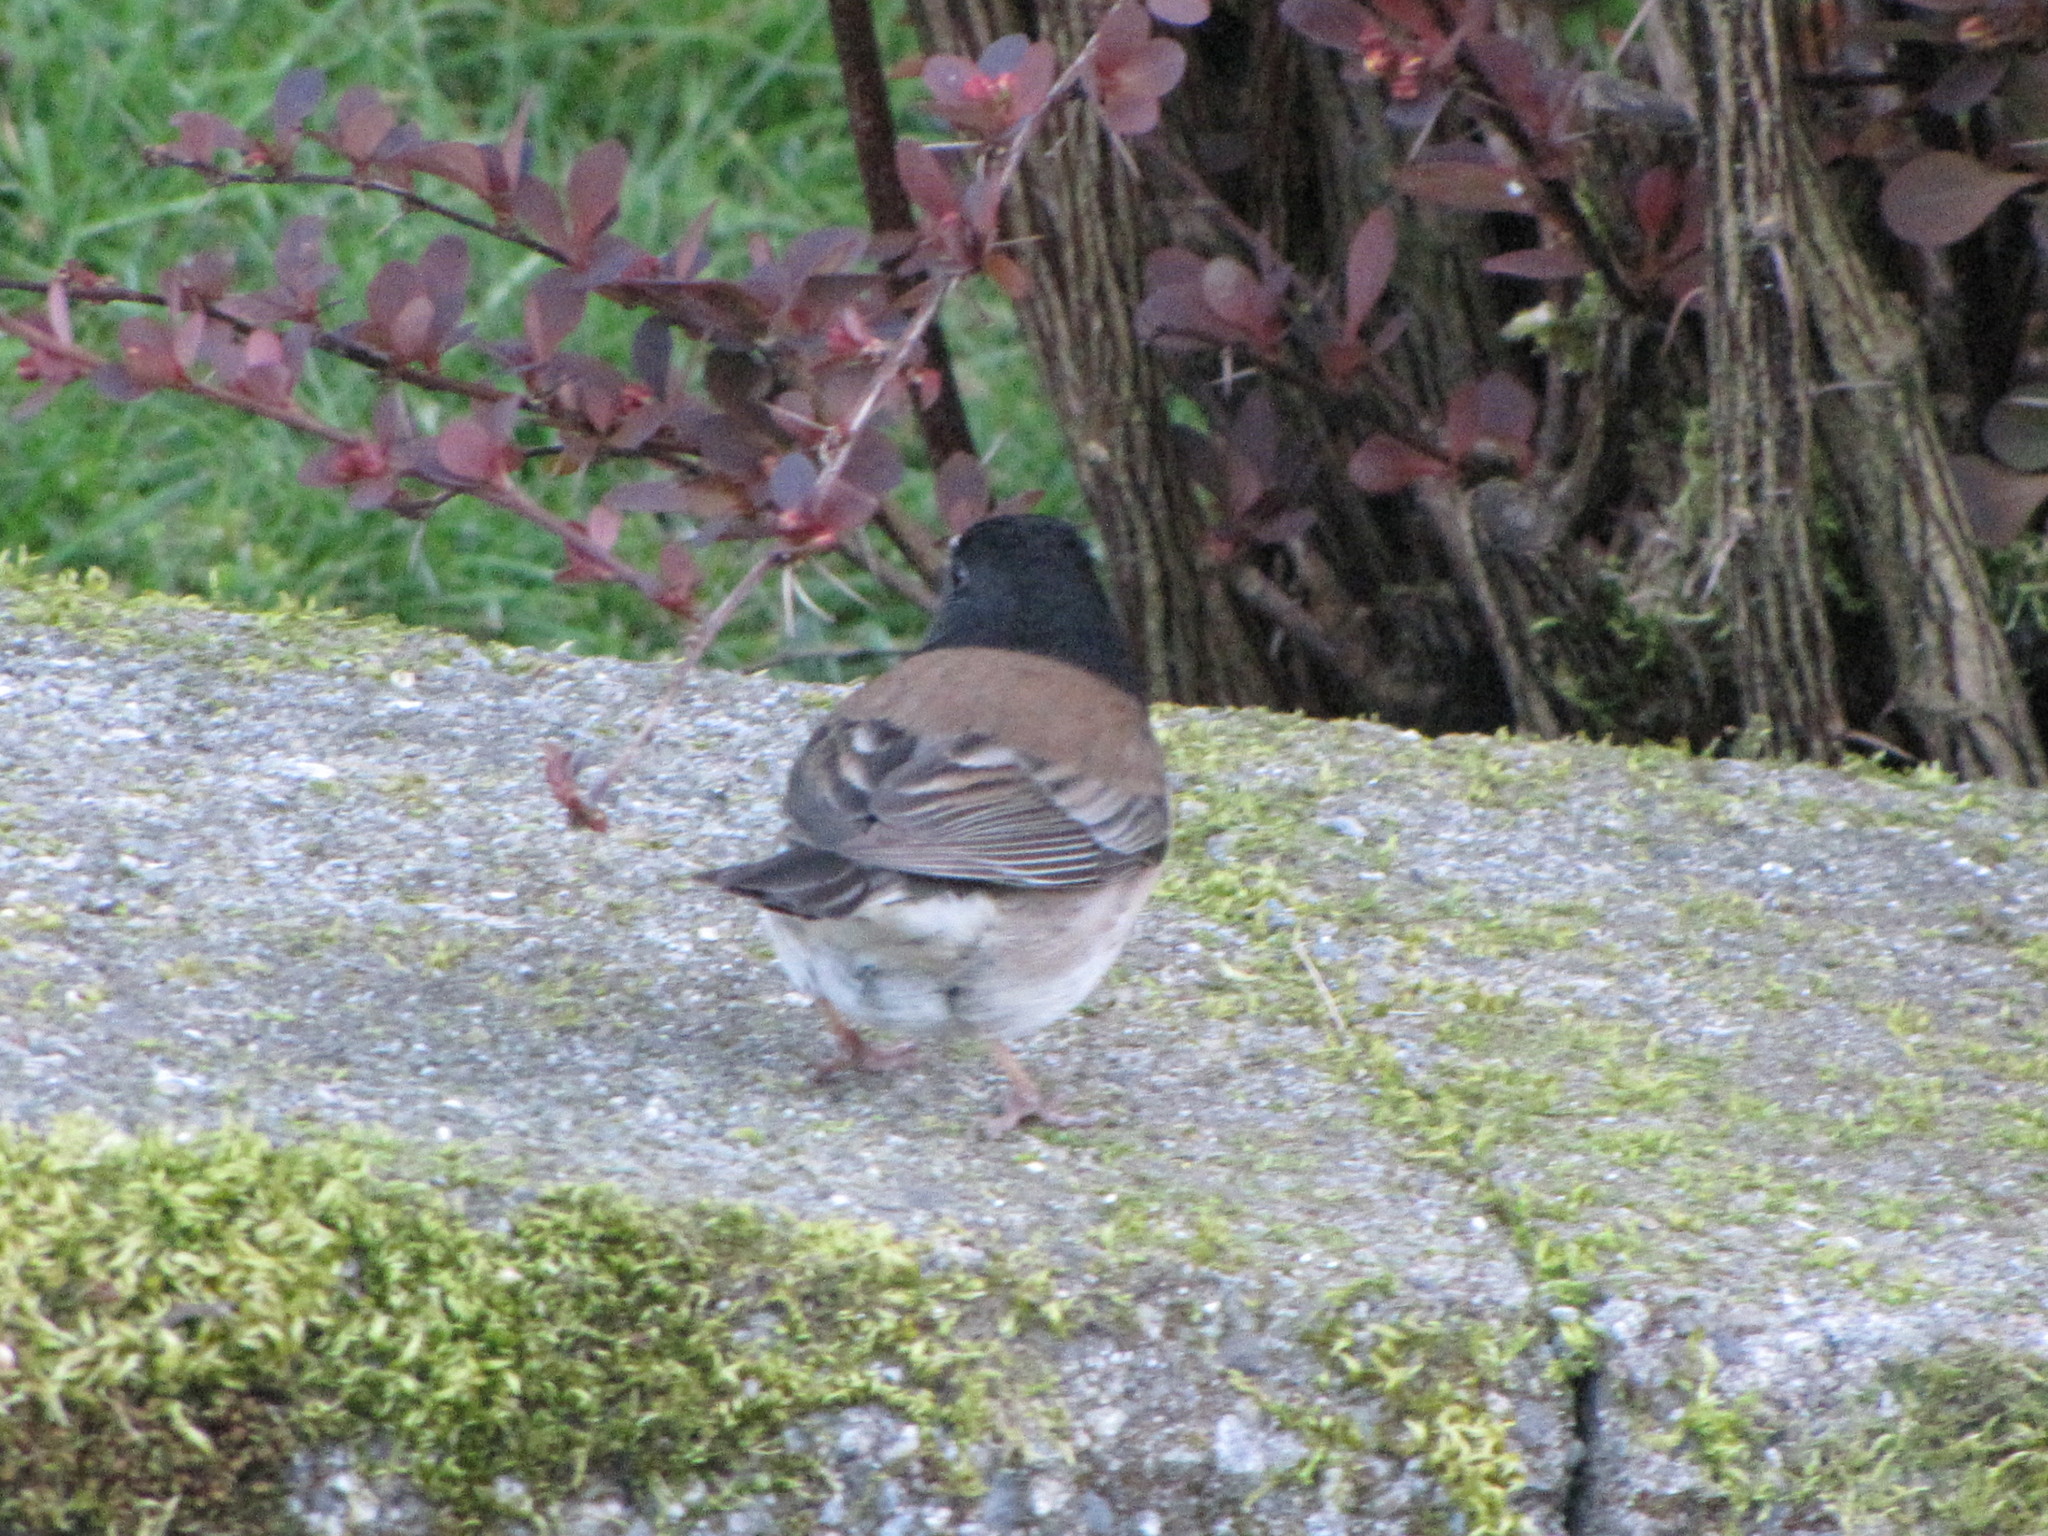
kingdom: Animalia
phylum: Chordata
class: Aves
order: Passeriformes
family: Passerellidae
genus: Junco
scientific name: Junco hyemalis
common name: Dark-eyed junco
